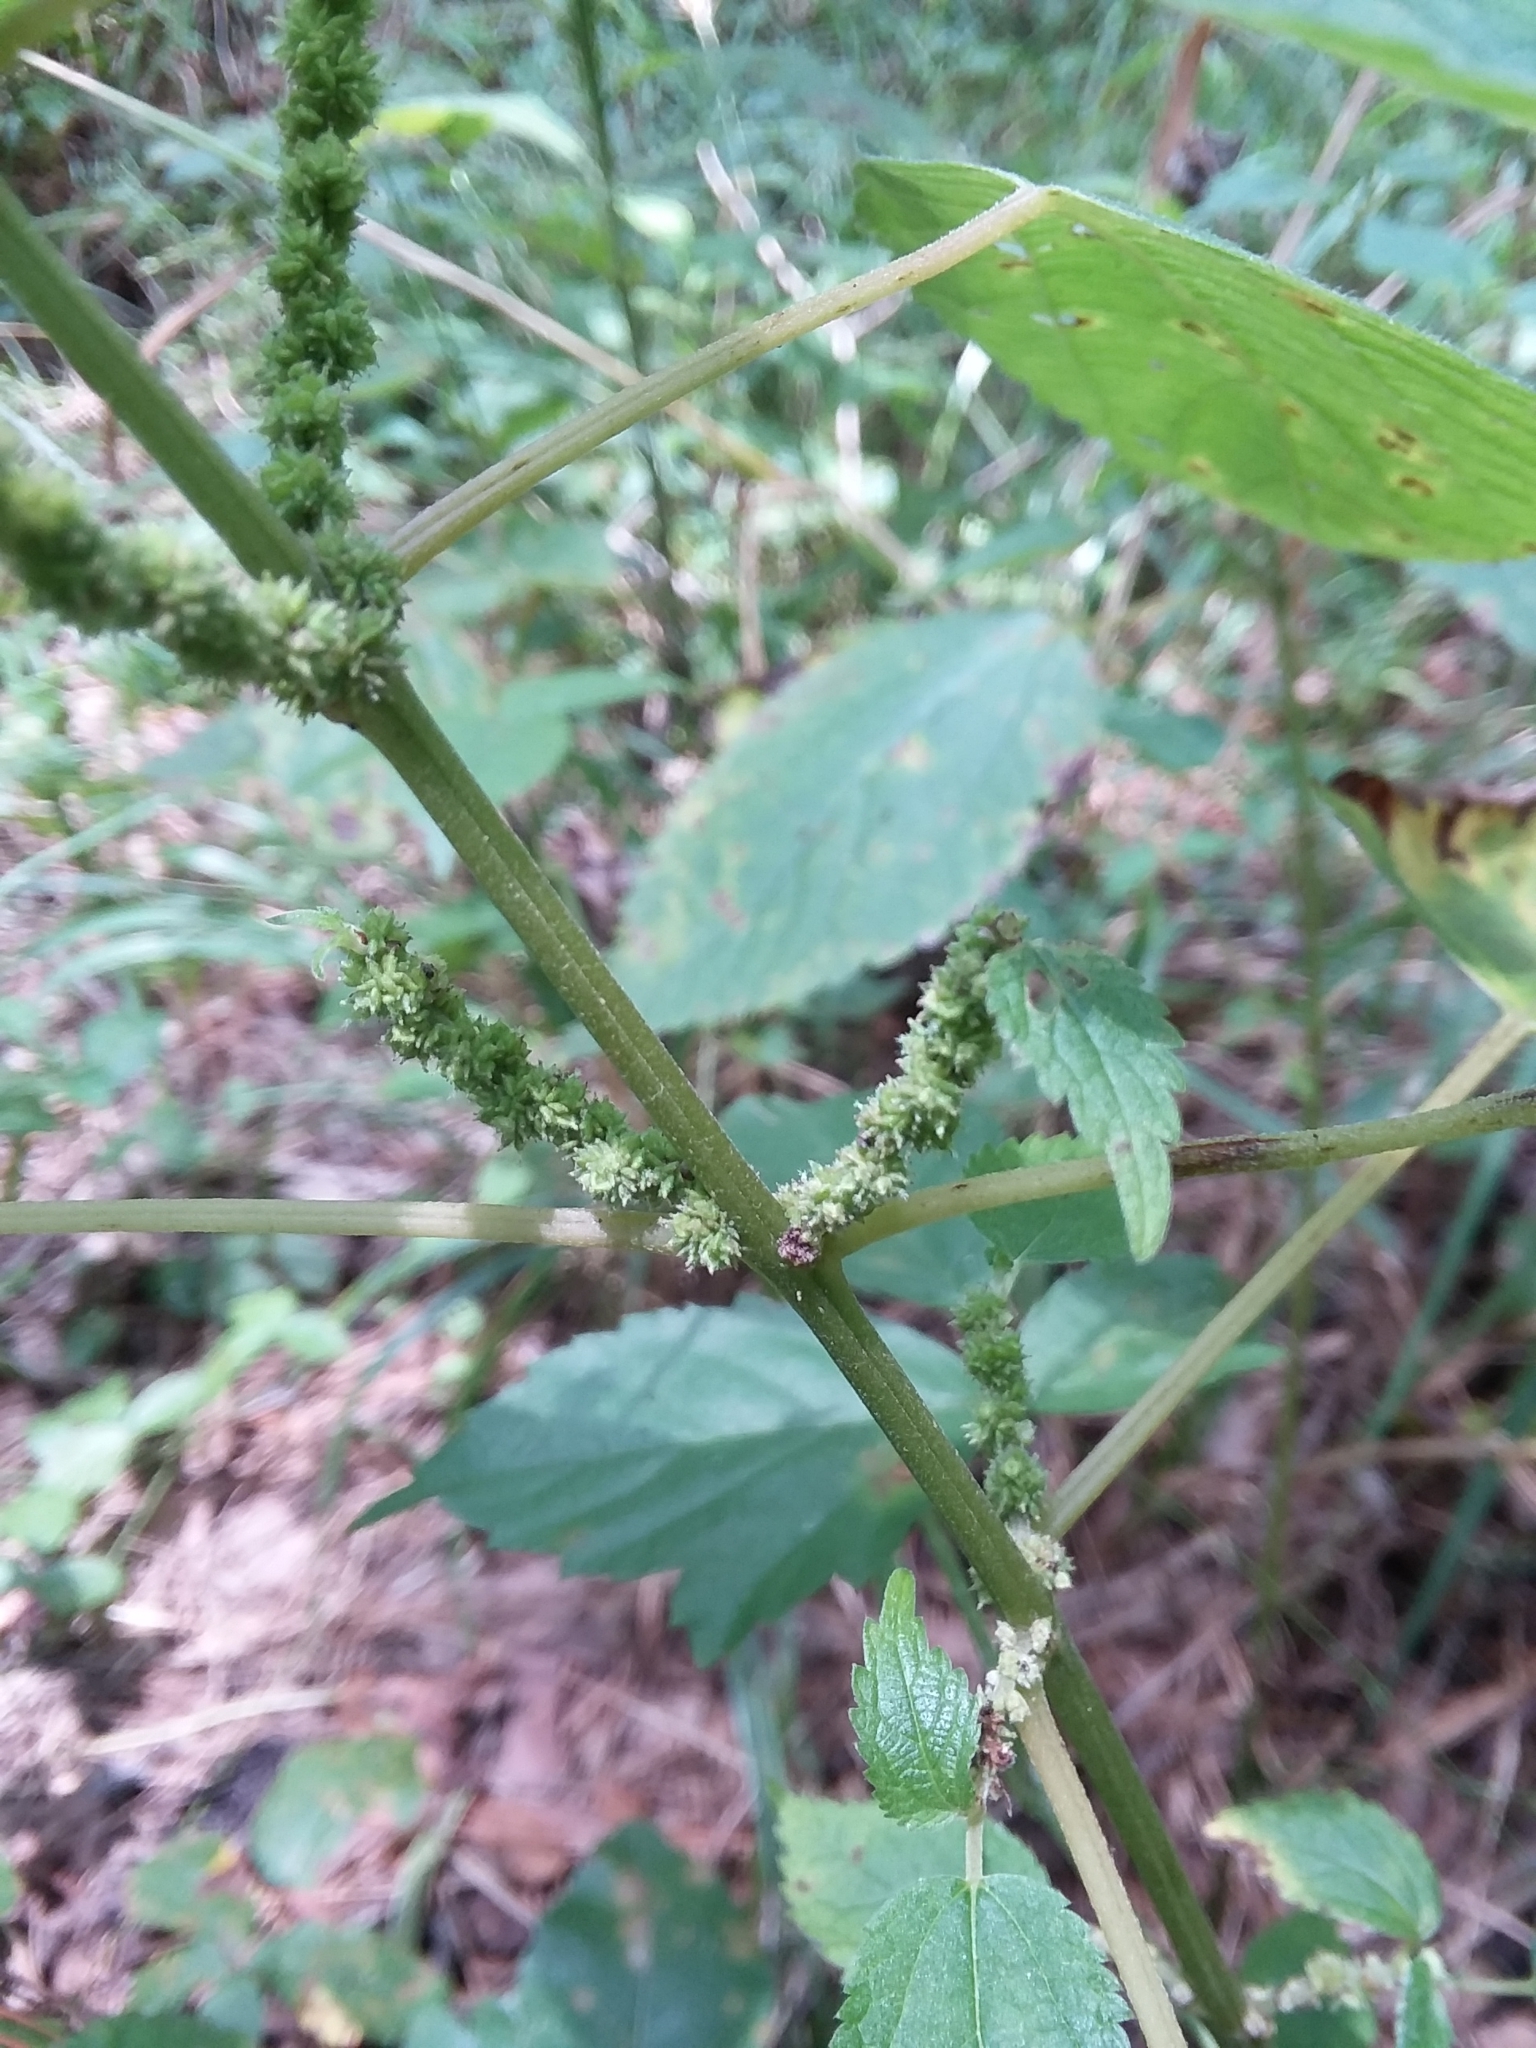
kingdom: Plantae
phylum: Tracheophyta
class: Magnoliopsida
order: Rosales
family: Urticaceae
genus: Boehmeria
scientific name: Boehmeria cylindrica
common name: Bog-hemp
